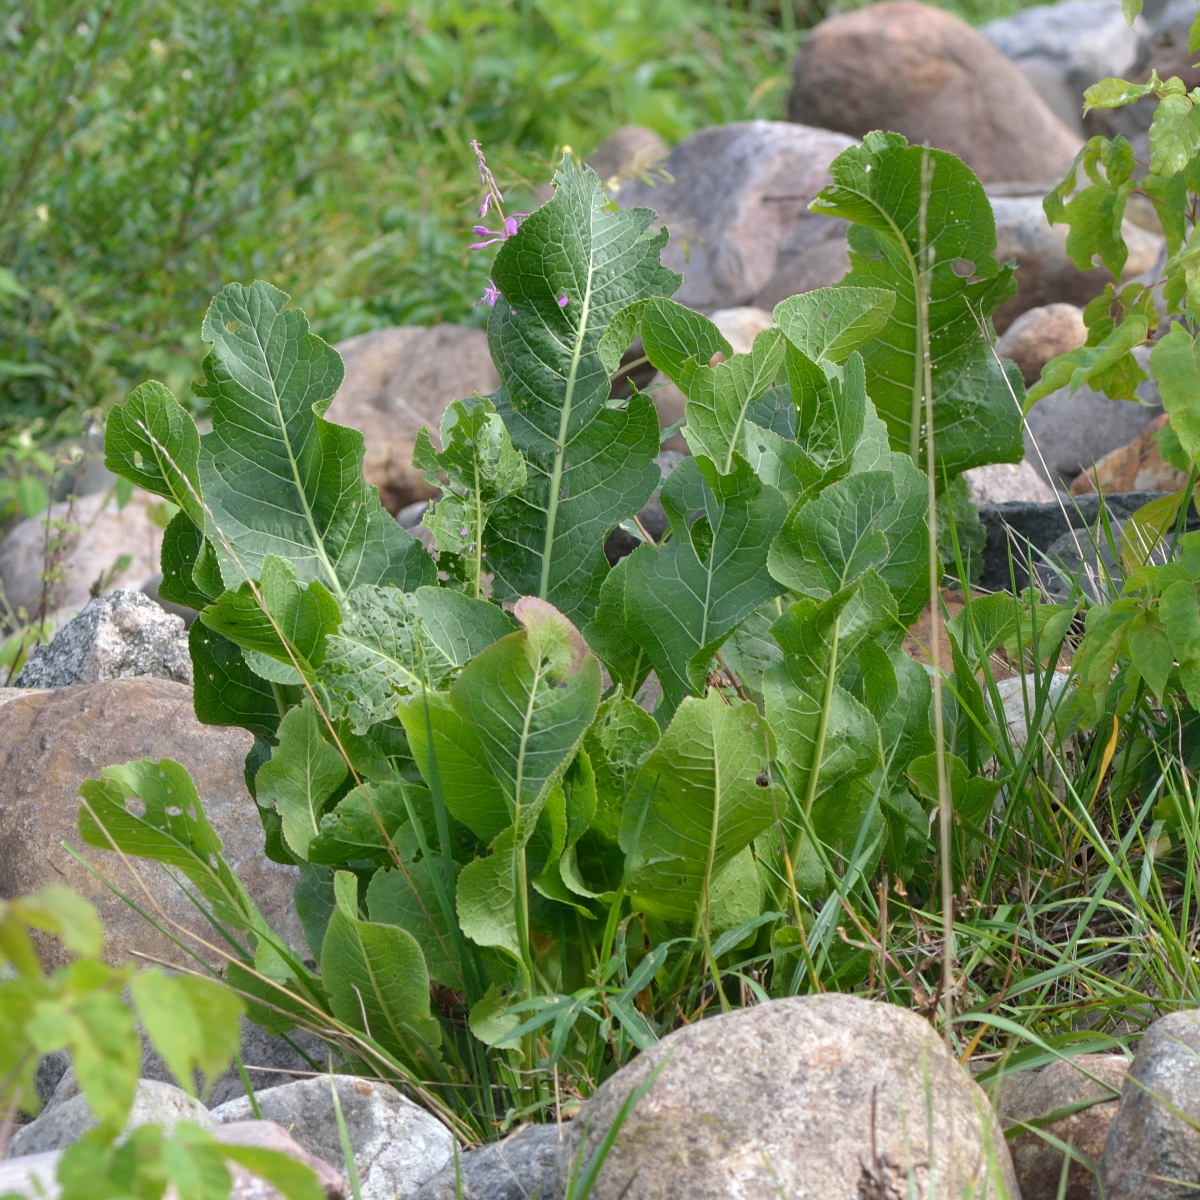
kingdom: Plantae
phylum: Tracheophyta
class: Magnoliopsida
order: Brassicales
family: Brassicaceae
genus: Armoracia
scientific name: Armoracia rusticana
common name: Horseradish
